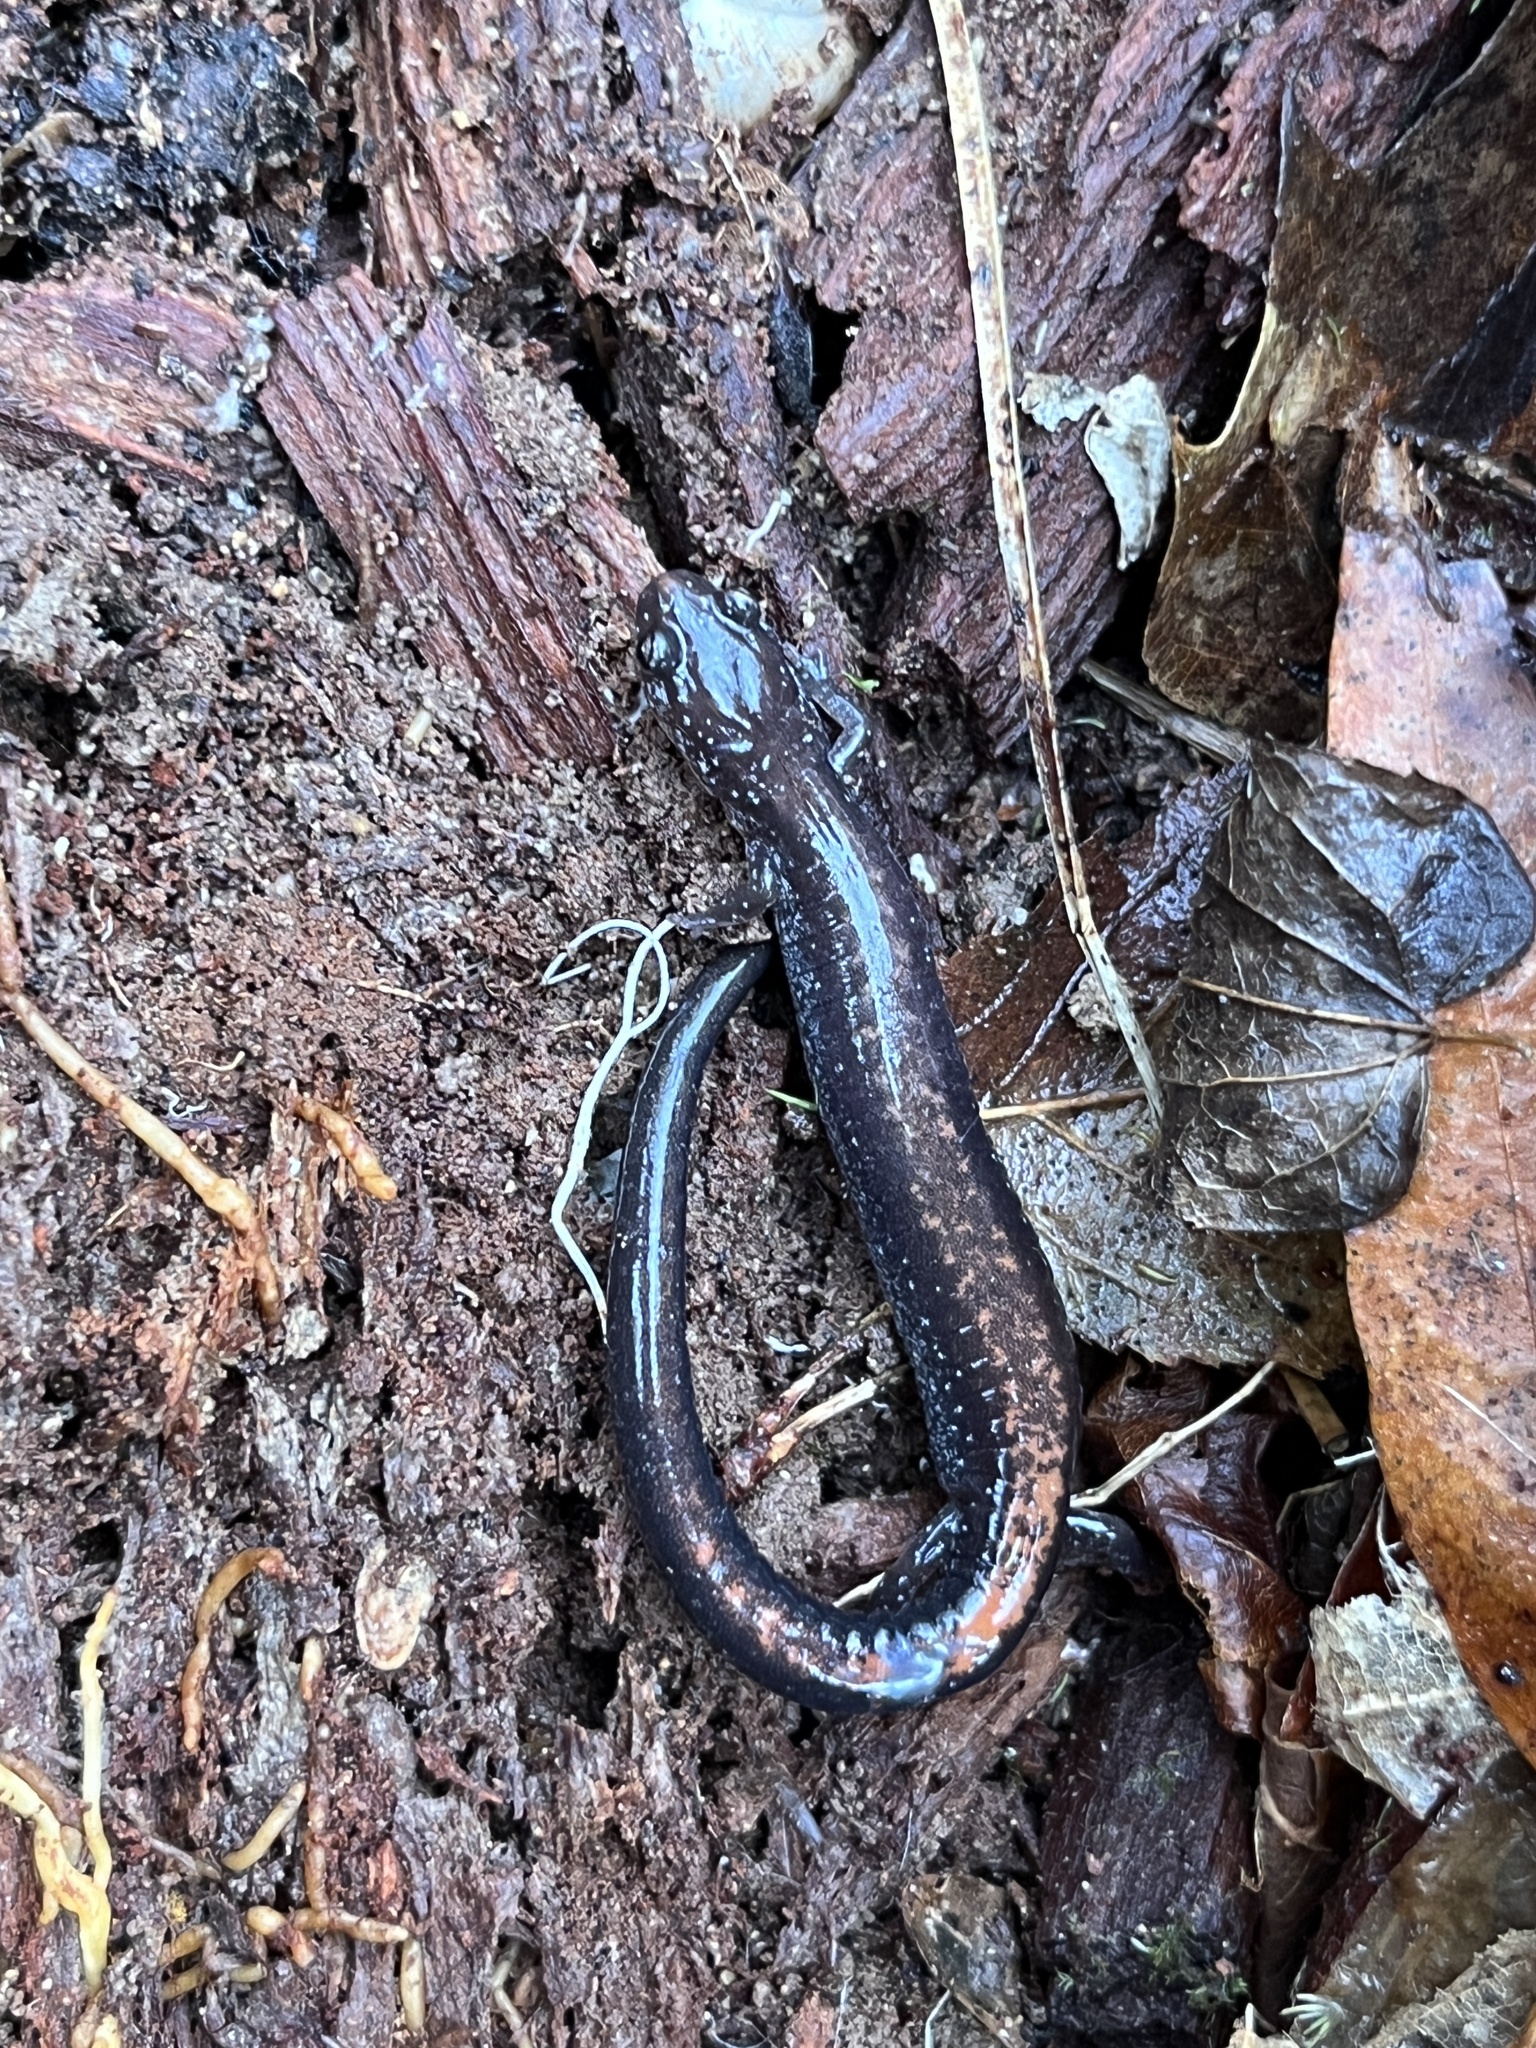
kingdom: Animalia
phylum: Chordata
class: Amphibia
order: Caudata
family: Plethodontidae
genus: Plethodon
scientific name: Plethodon cinereus
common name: Redback salamander
